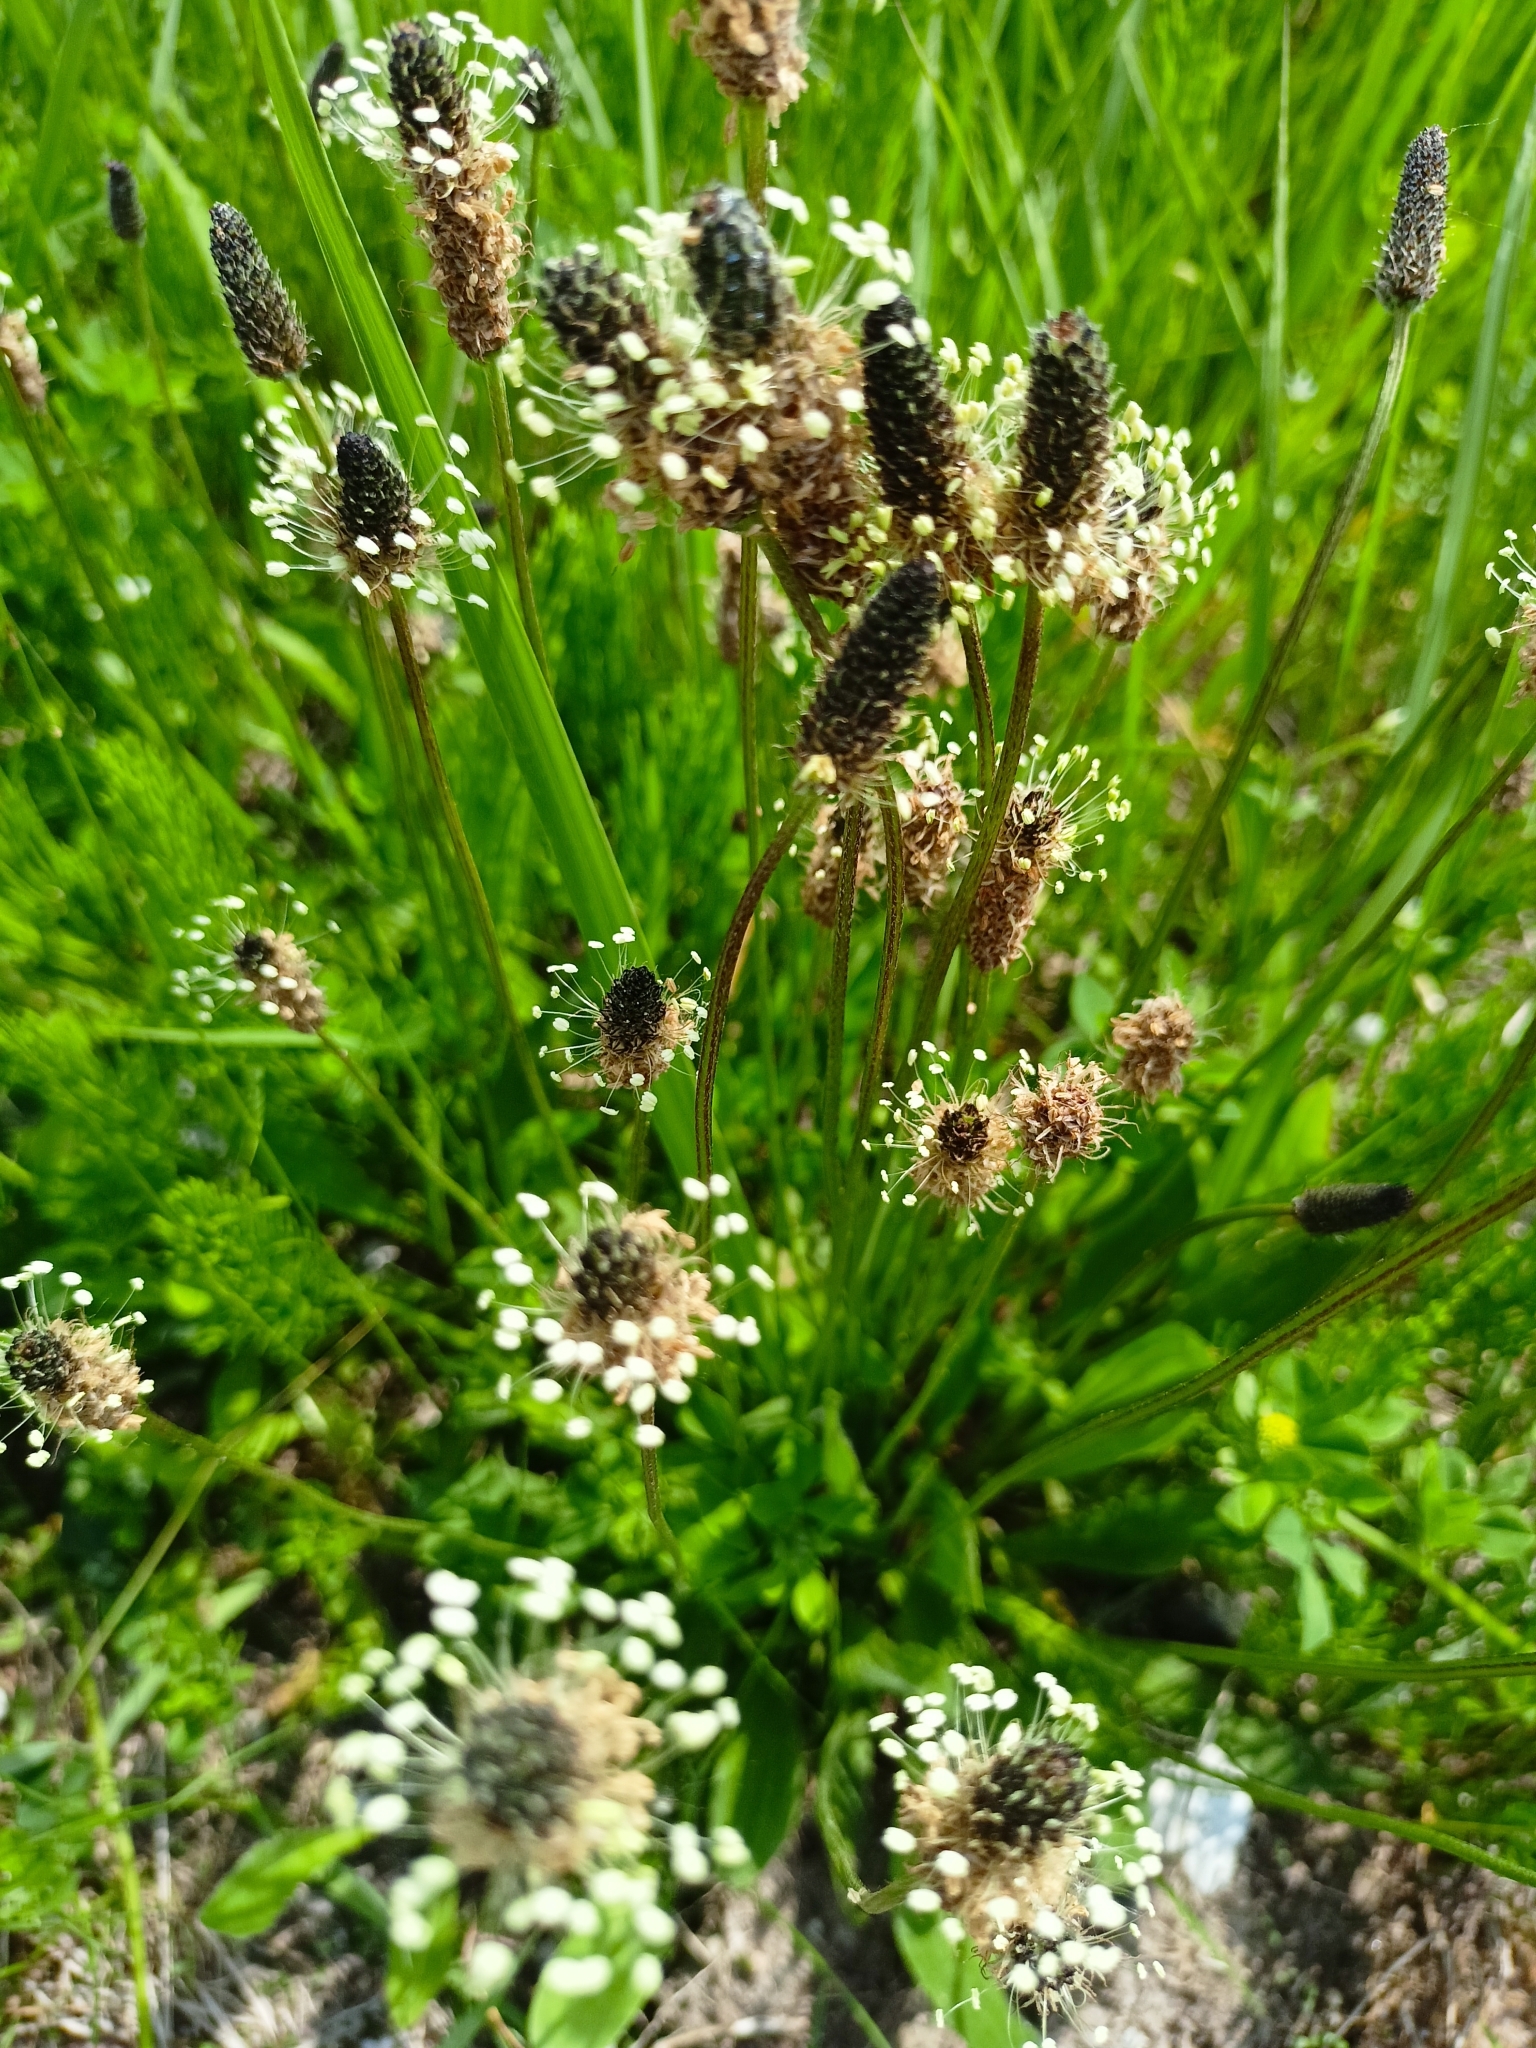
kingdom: Plantae
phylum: Tracheophyta
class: Magnoliopsida
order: Lamiales
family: Plantaginaceae
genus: Plantago
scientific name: Plantago lanceolata
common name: Ribwort plantain
